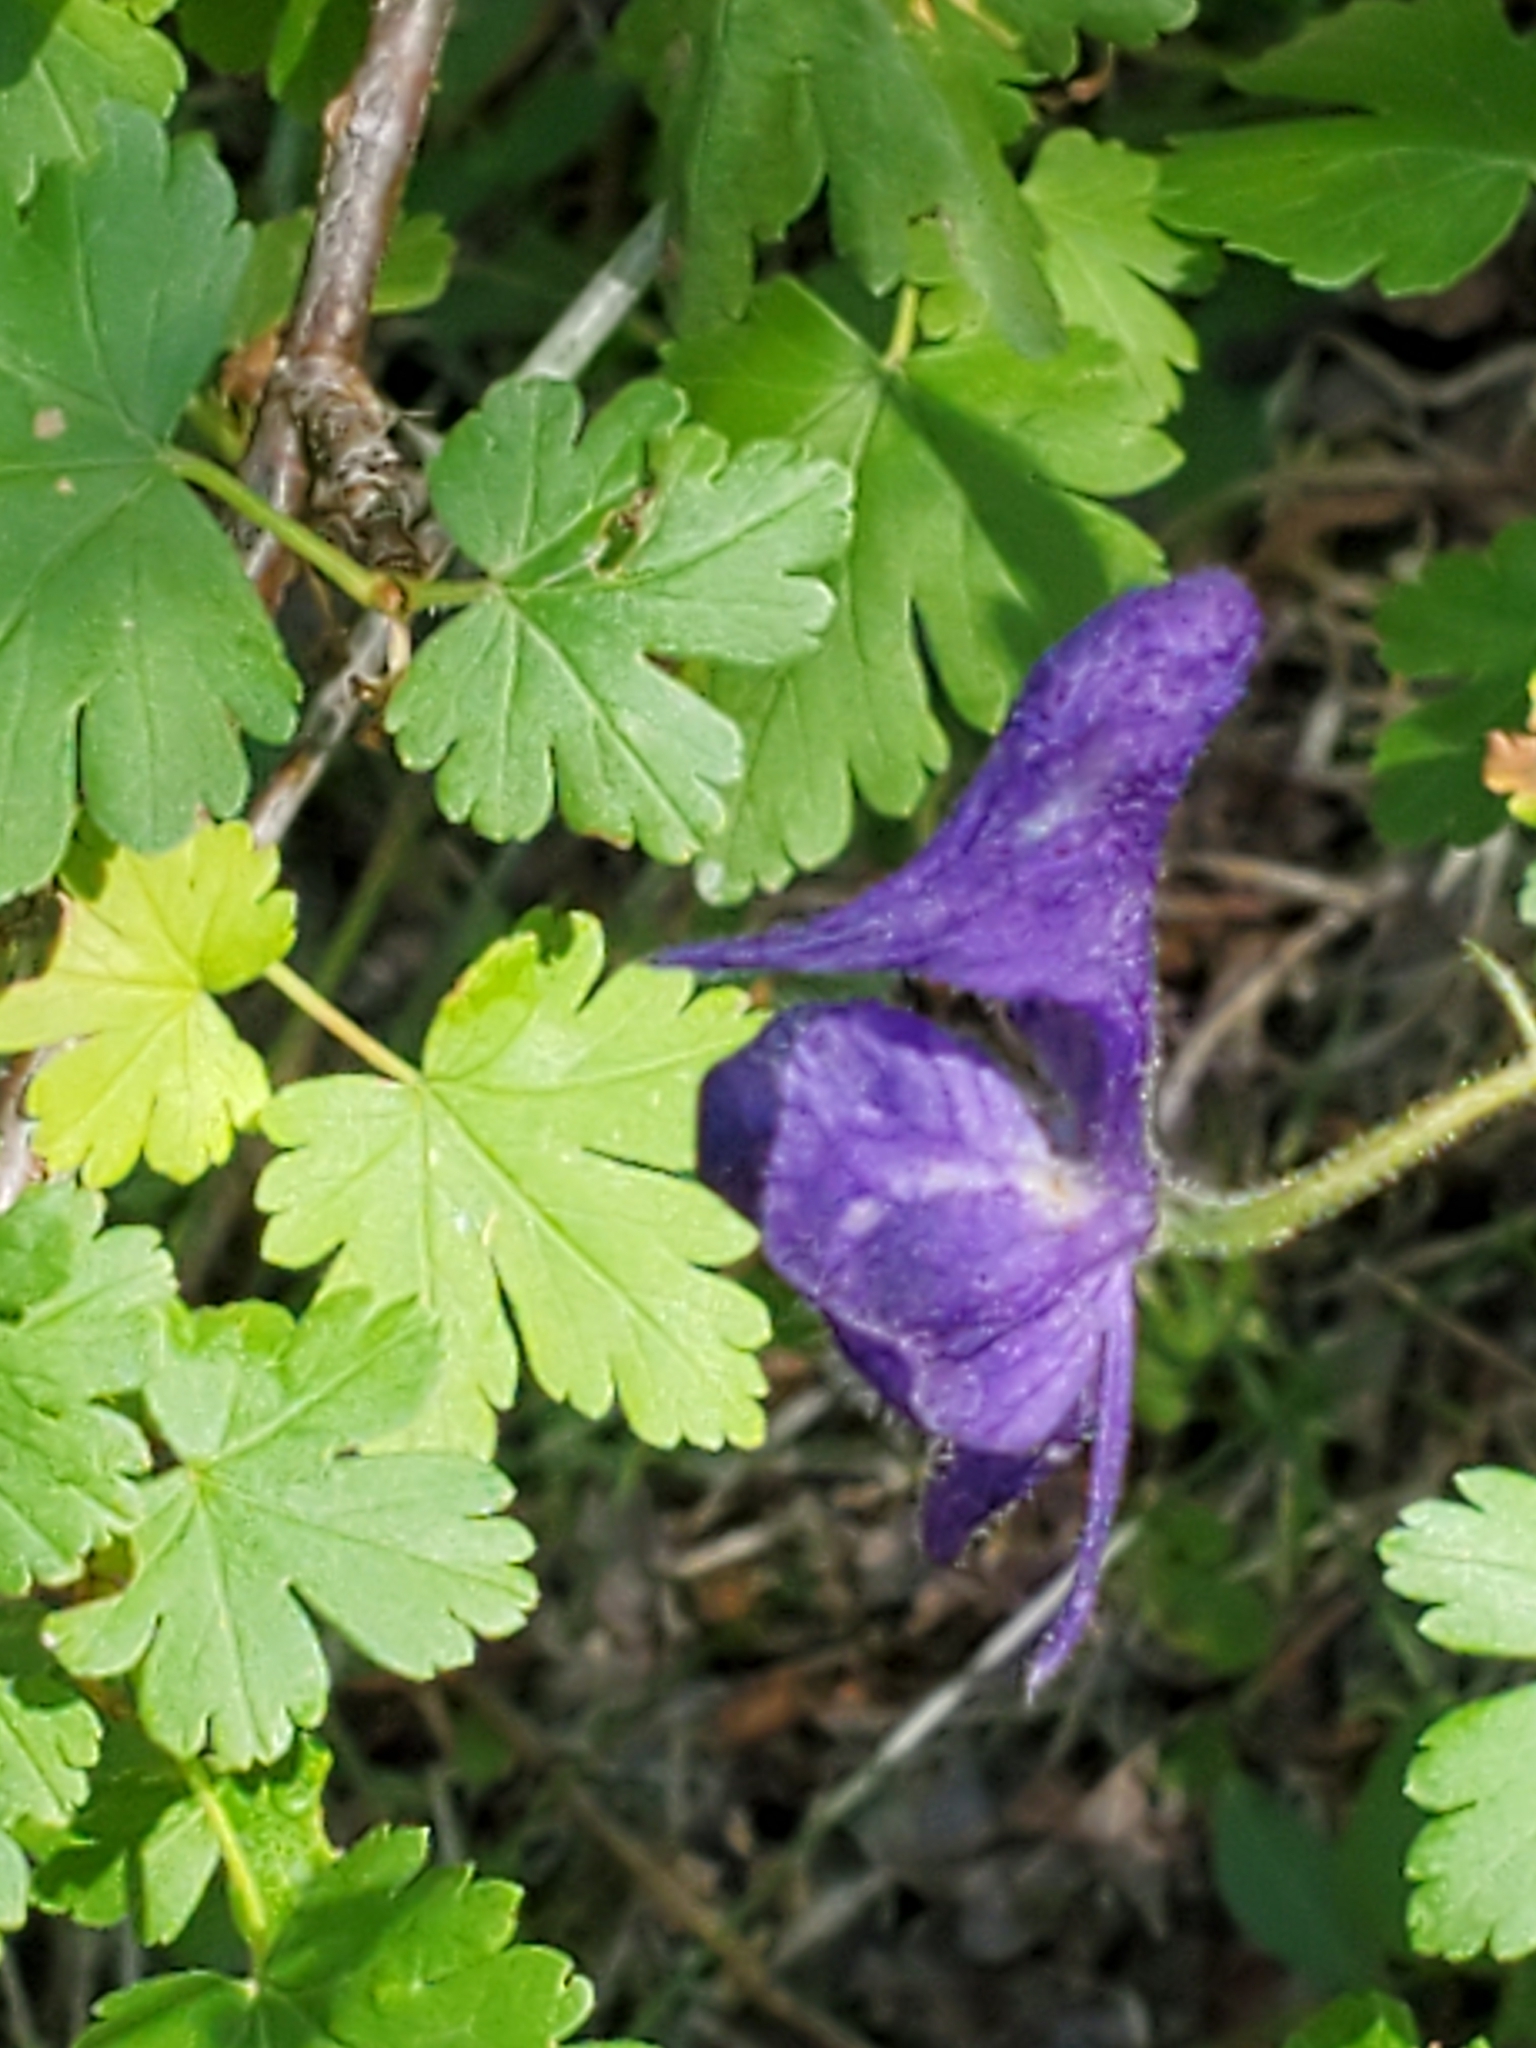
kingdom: Plantae
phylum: Tracheophyta
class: Magnoliopsida
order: Ranunculales
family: Ranunculaceae
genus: Aconitum
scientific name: Aconitum columbianum
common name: Columbia aconite
